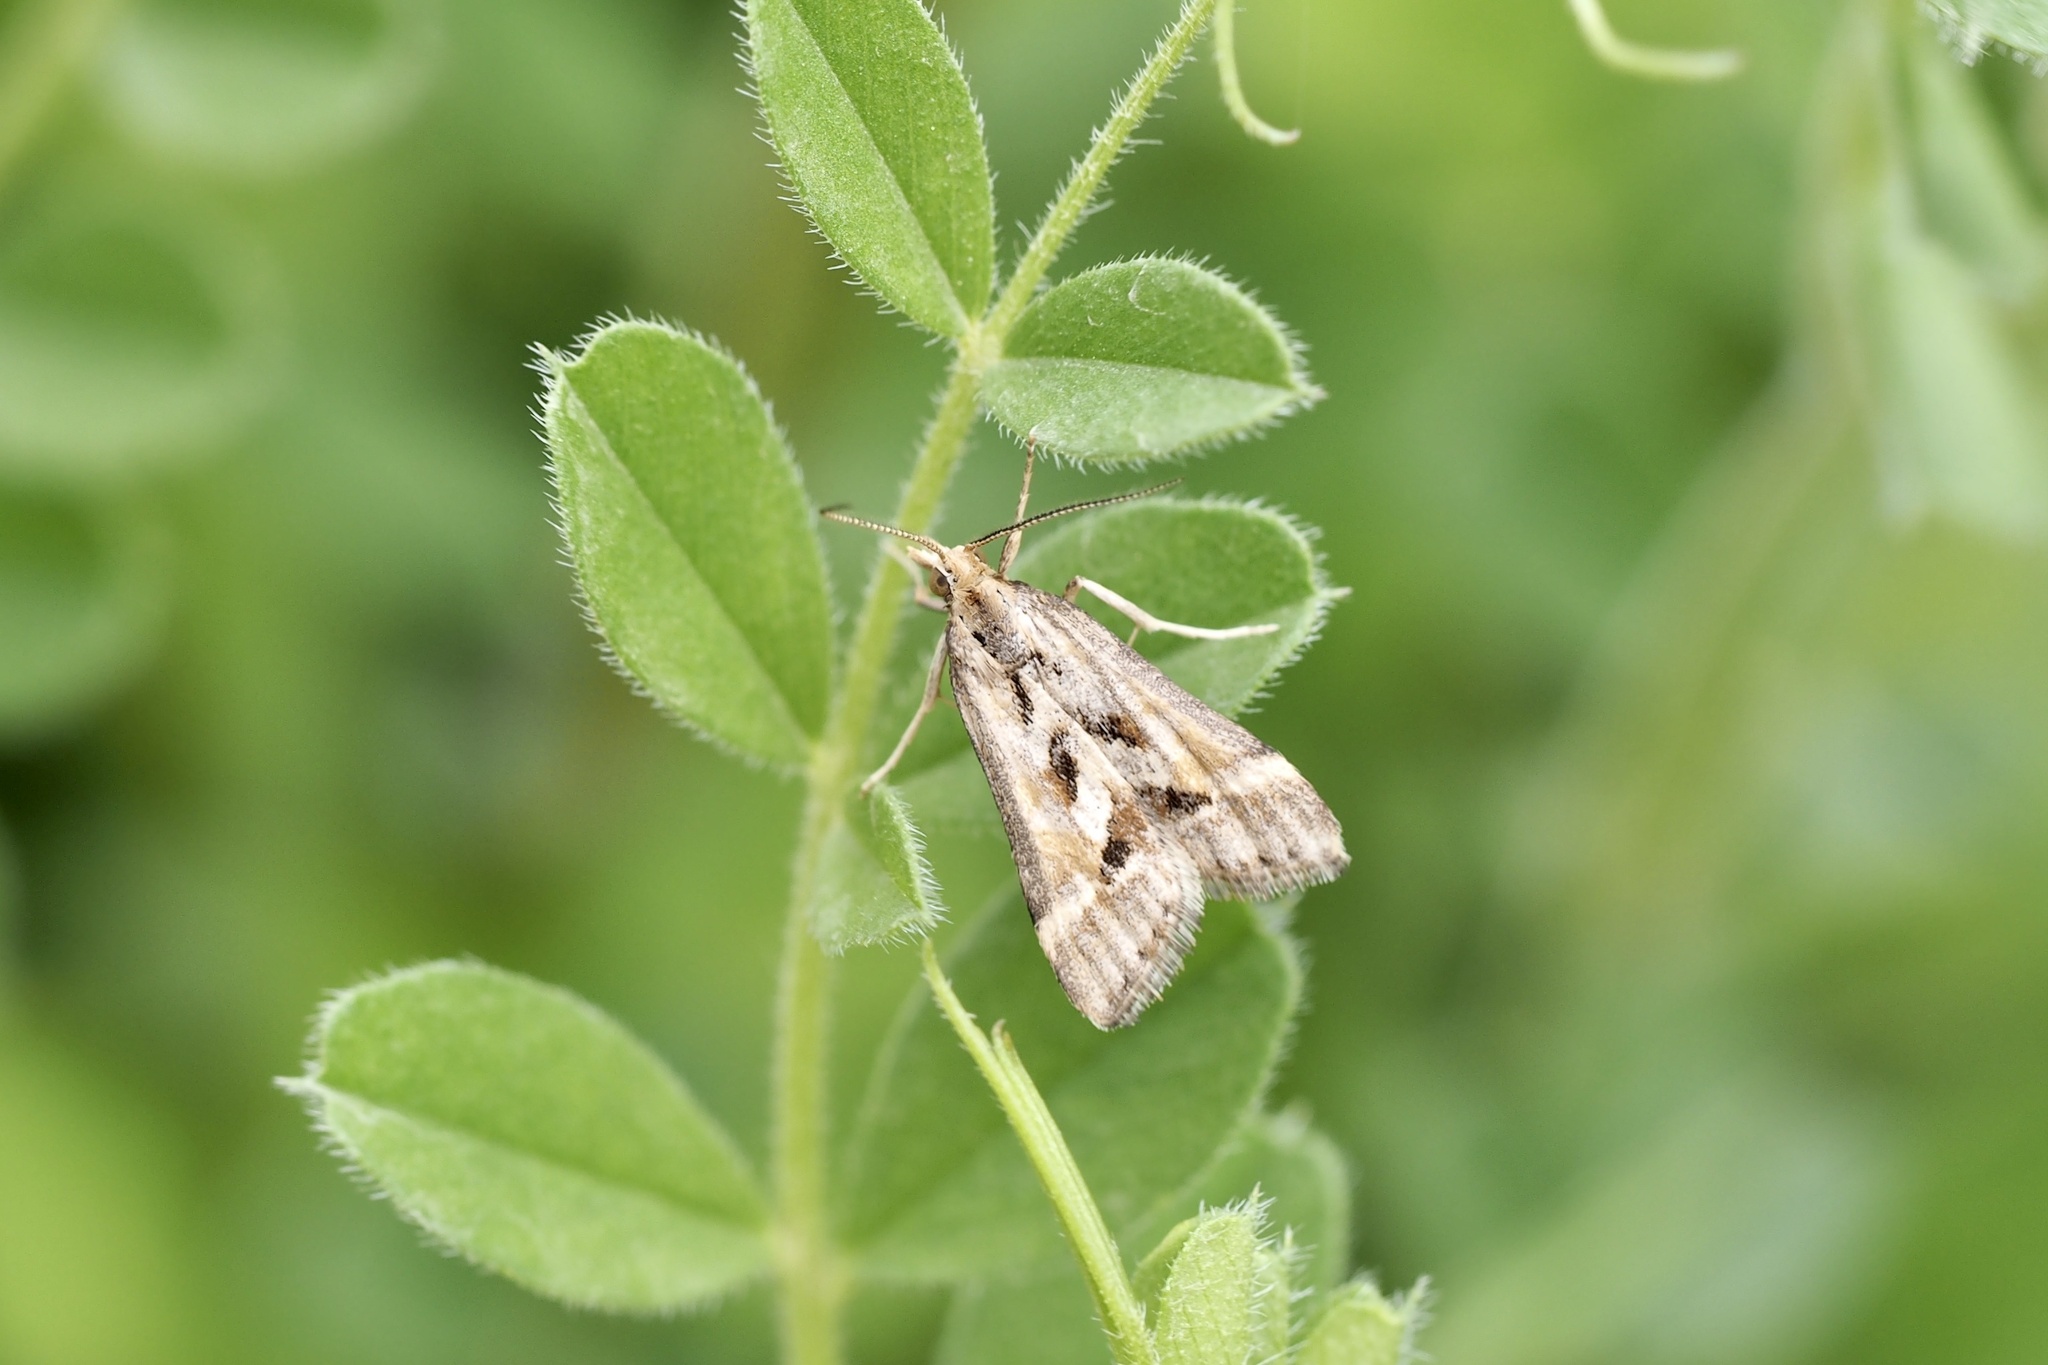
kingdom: Animalia
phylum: Arthropoda
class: Insecta
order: Lepidoptera
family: Crambidae
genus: Diasemia
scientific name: Diasemia accalis
